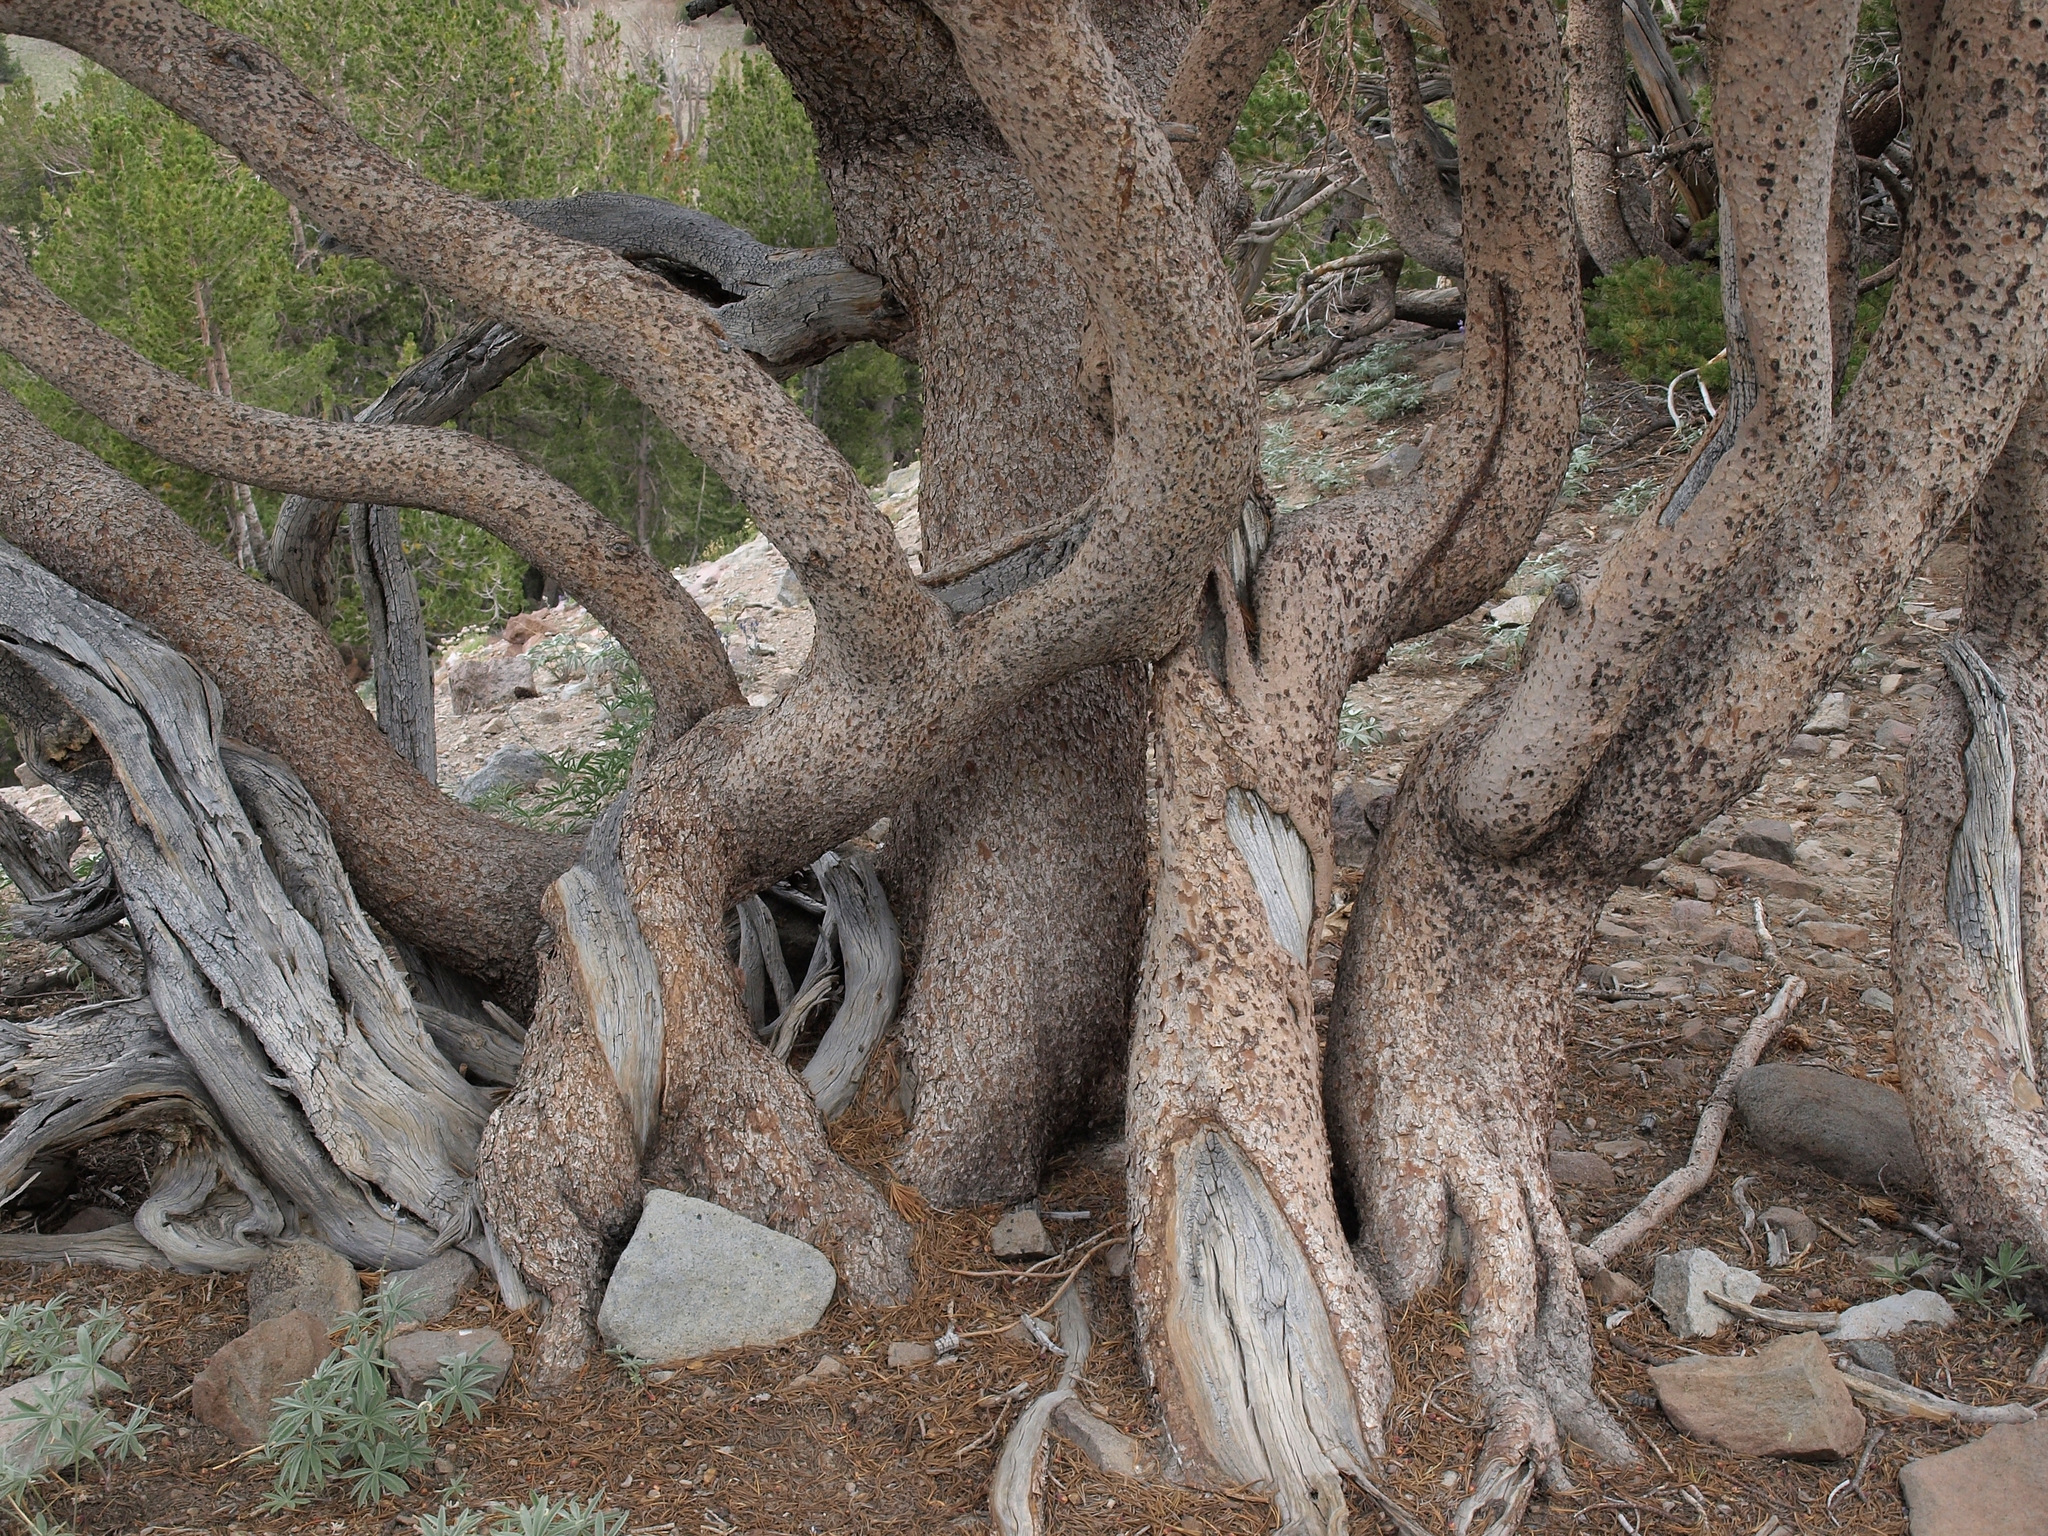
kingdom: Plantae
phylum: Tracheophyta
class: Pinopsida
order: Pinales
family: Pinaceae
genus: Pinus
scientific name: Pinus albicaulis
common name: Whitebark pine
